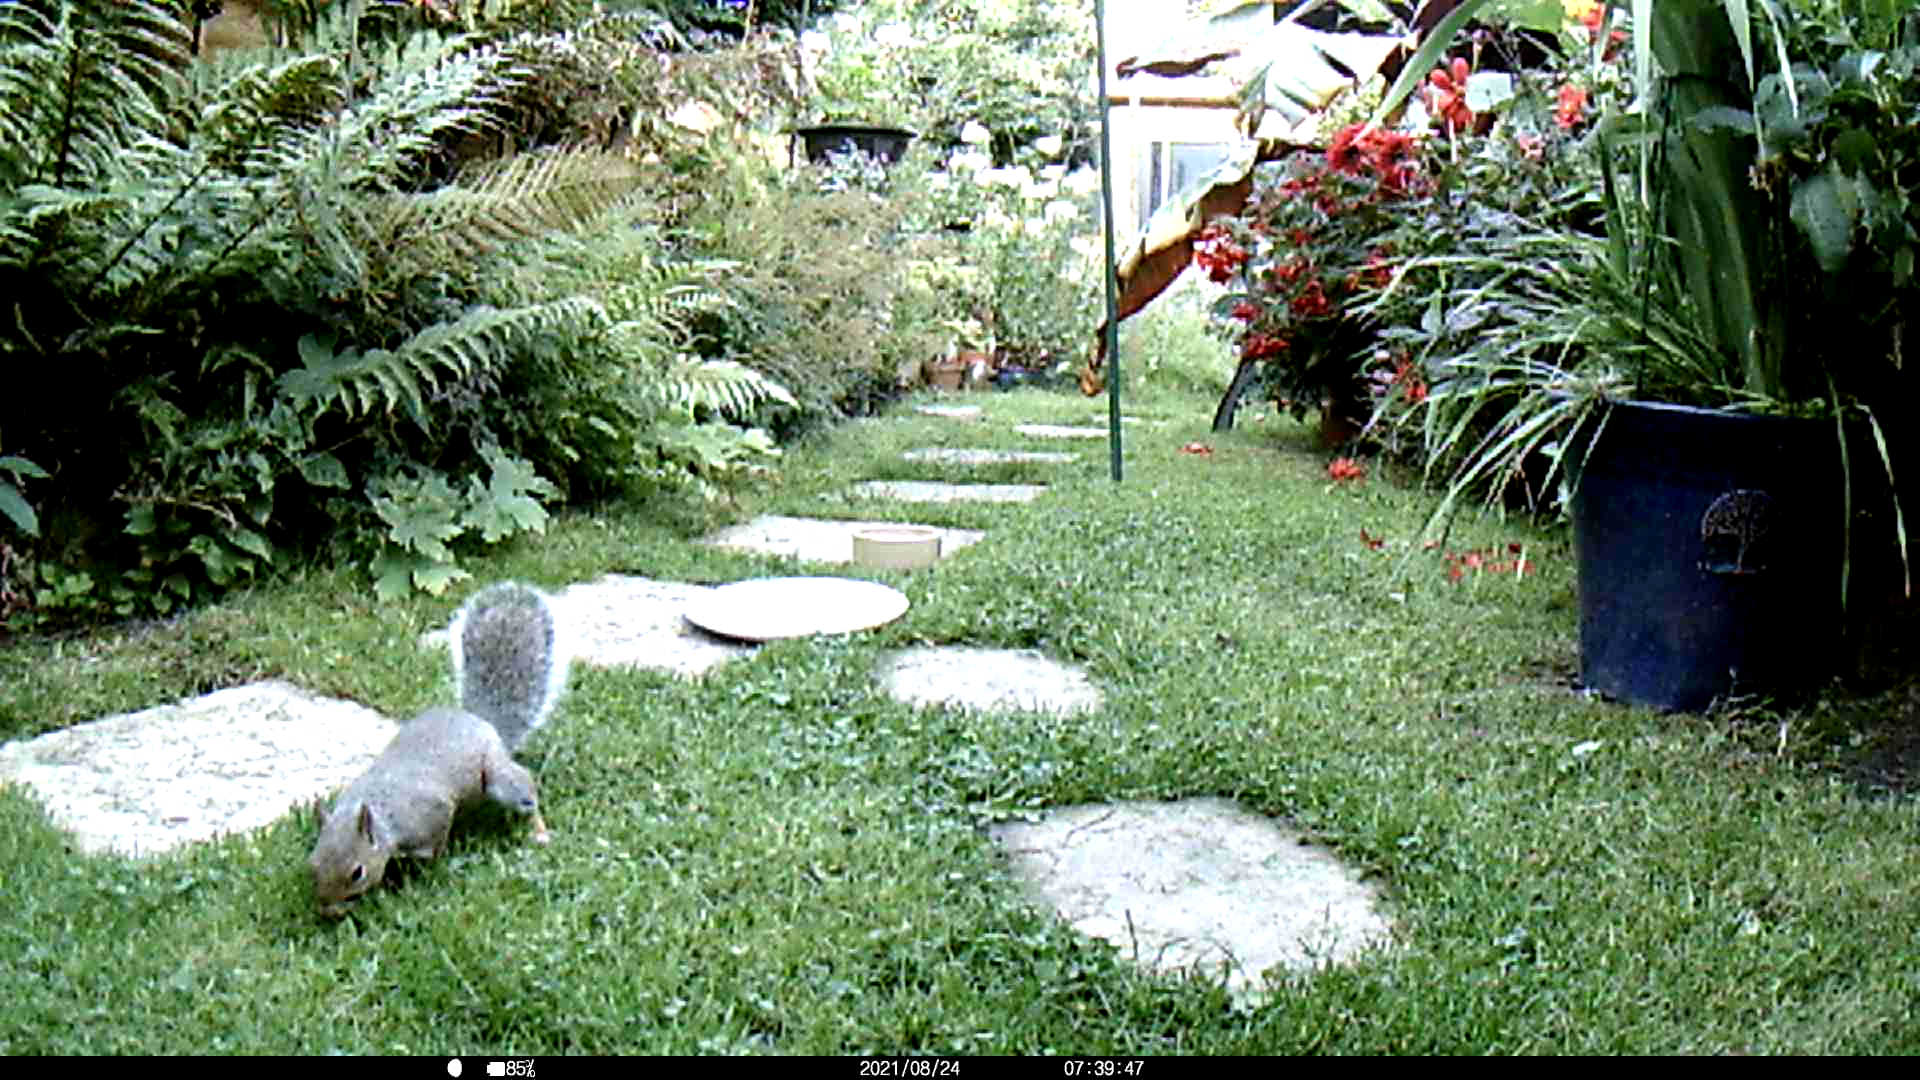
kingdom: Animalia
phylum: Chordata
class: Mammalia
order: Rodentia
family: Sciuridae
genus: Sciurus
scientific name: Sciurus carolinensis
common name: Eastern gray squirrel
